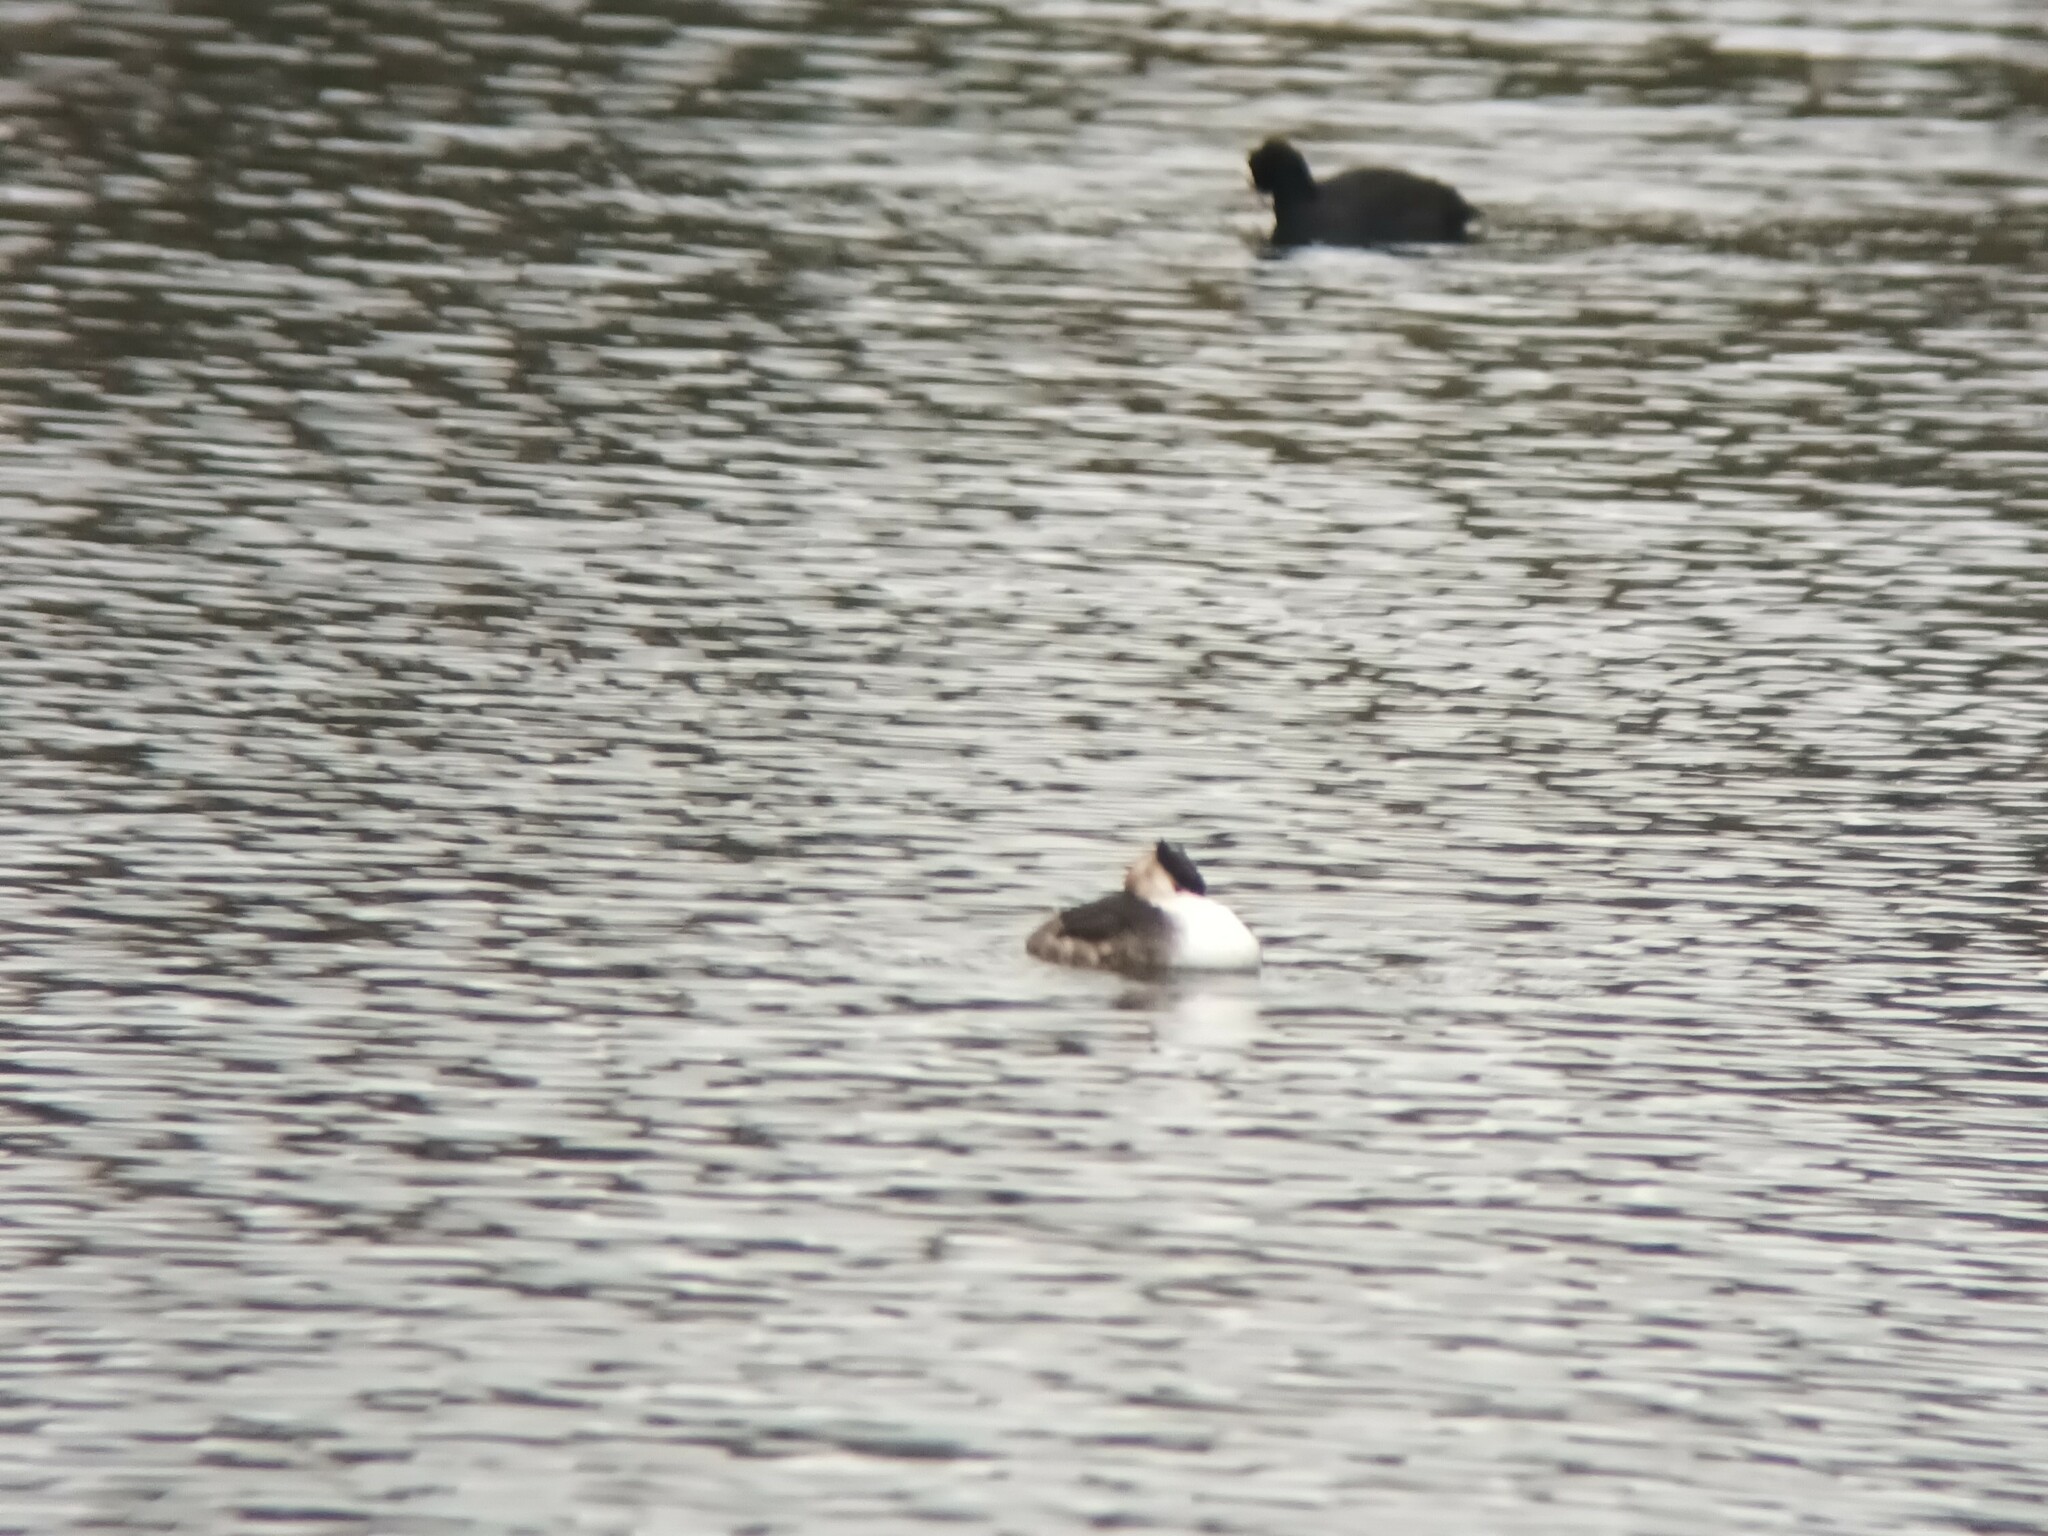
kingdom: Animalia
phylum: Chordata
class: Aves
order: Podicipediformes
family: Podicipedidae
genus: Podiceps
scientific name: Podiceps cristatus
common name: Great crested grebe
